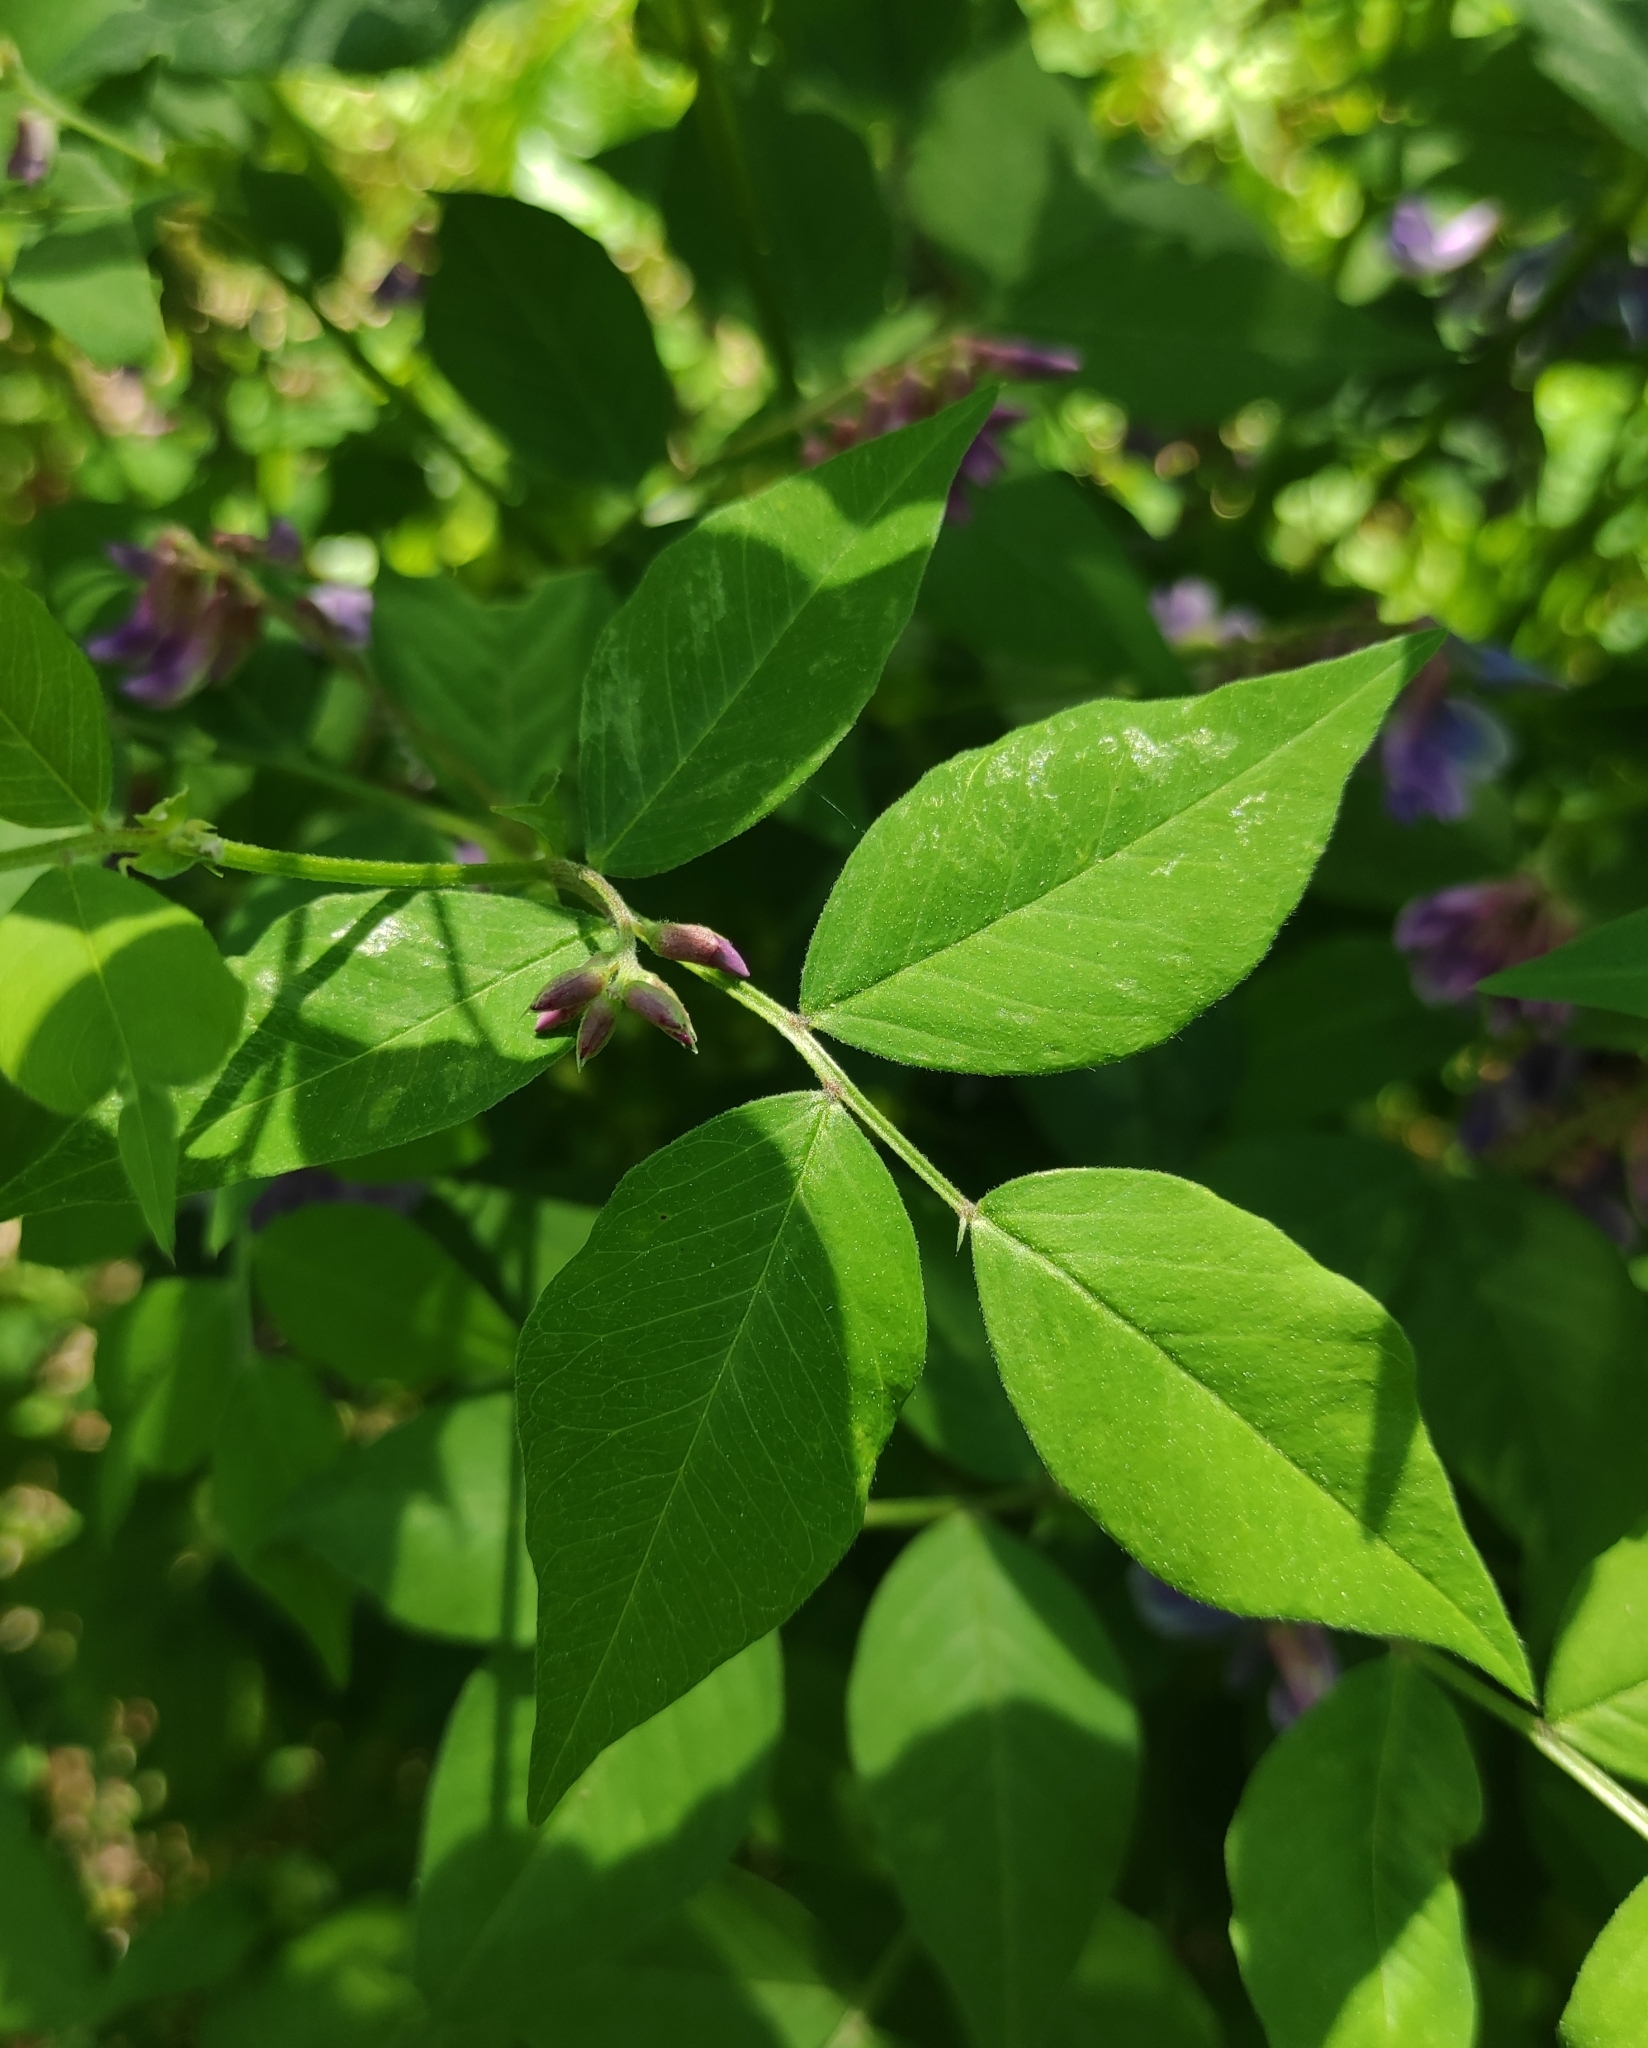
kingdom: Plantae
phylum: Tracheophyta
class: Magnoliopsida
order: Fabales
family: Fabaceae
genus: Vicia
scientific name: Vicia ramuliflora
